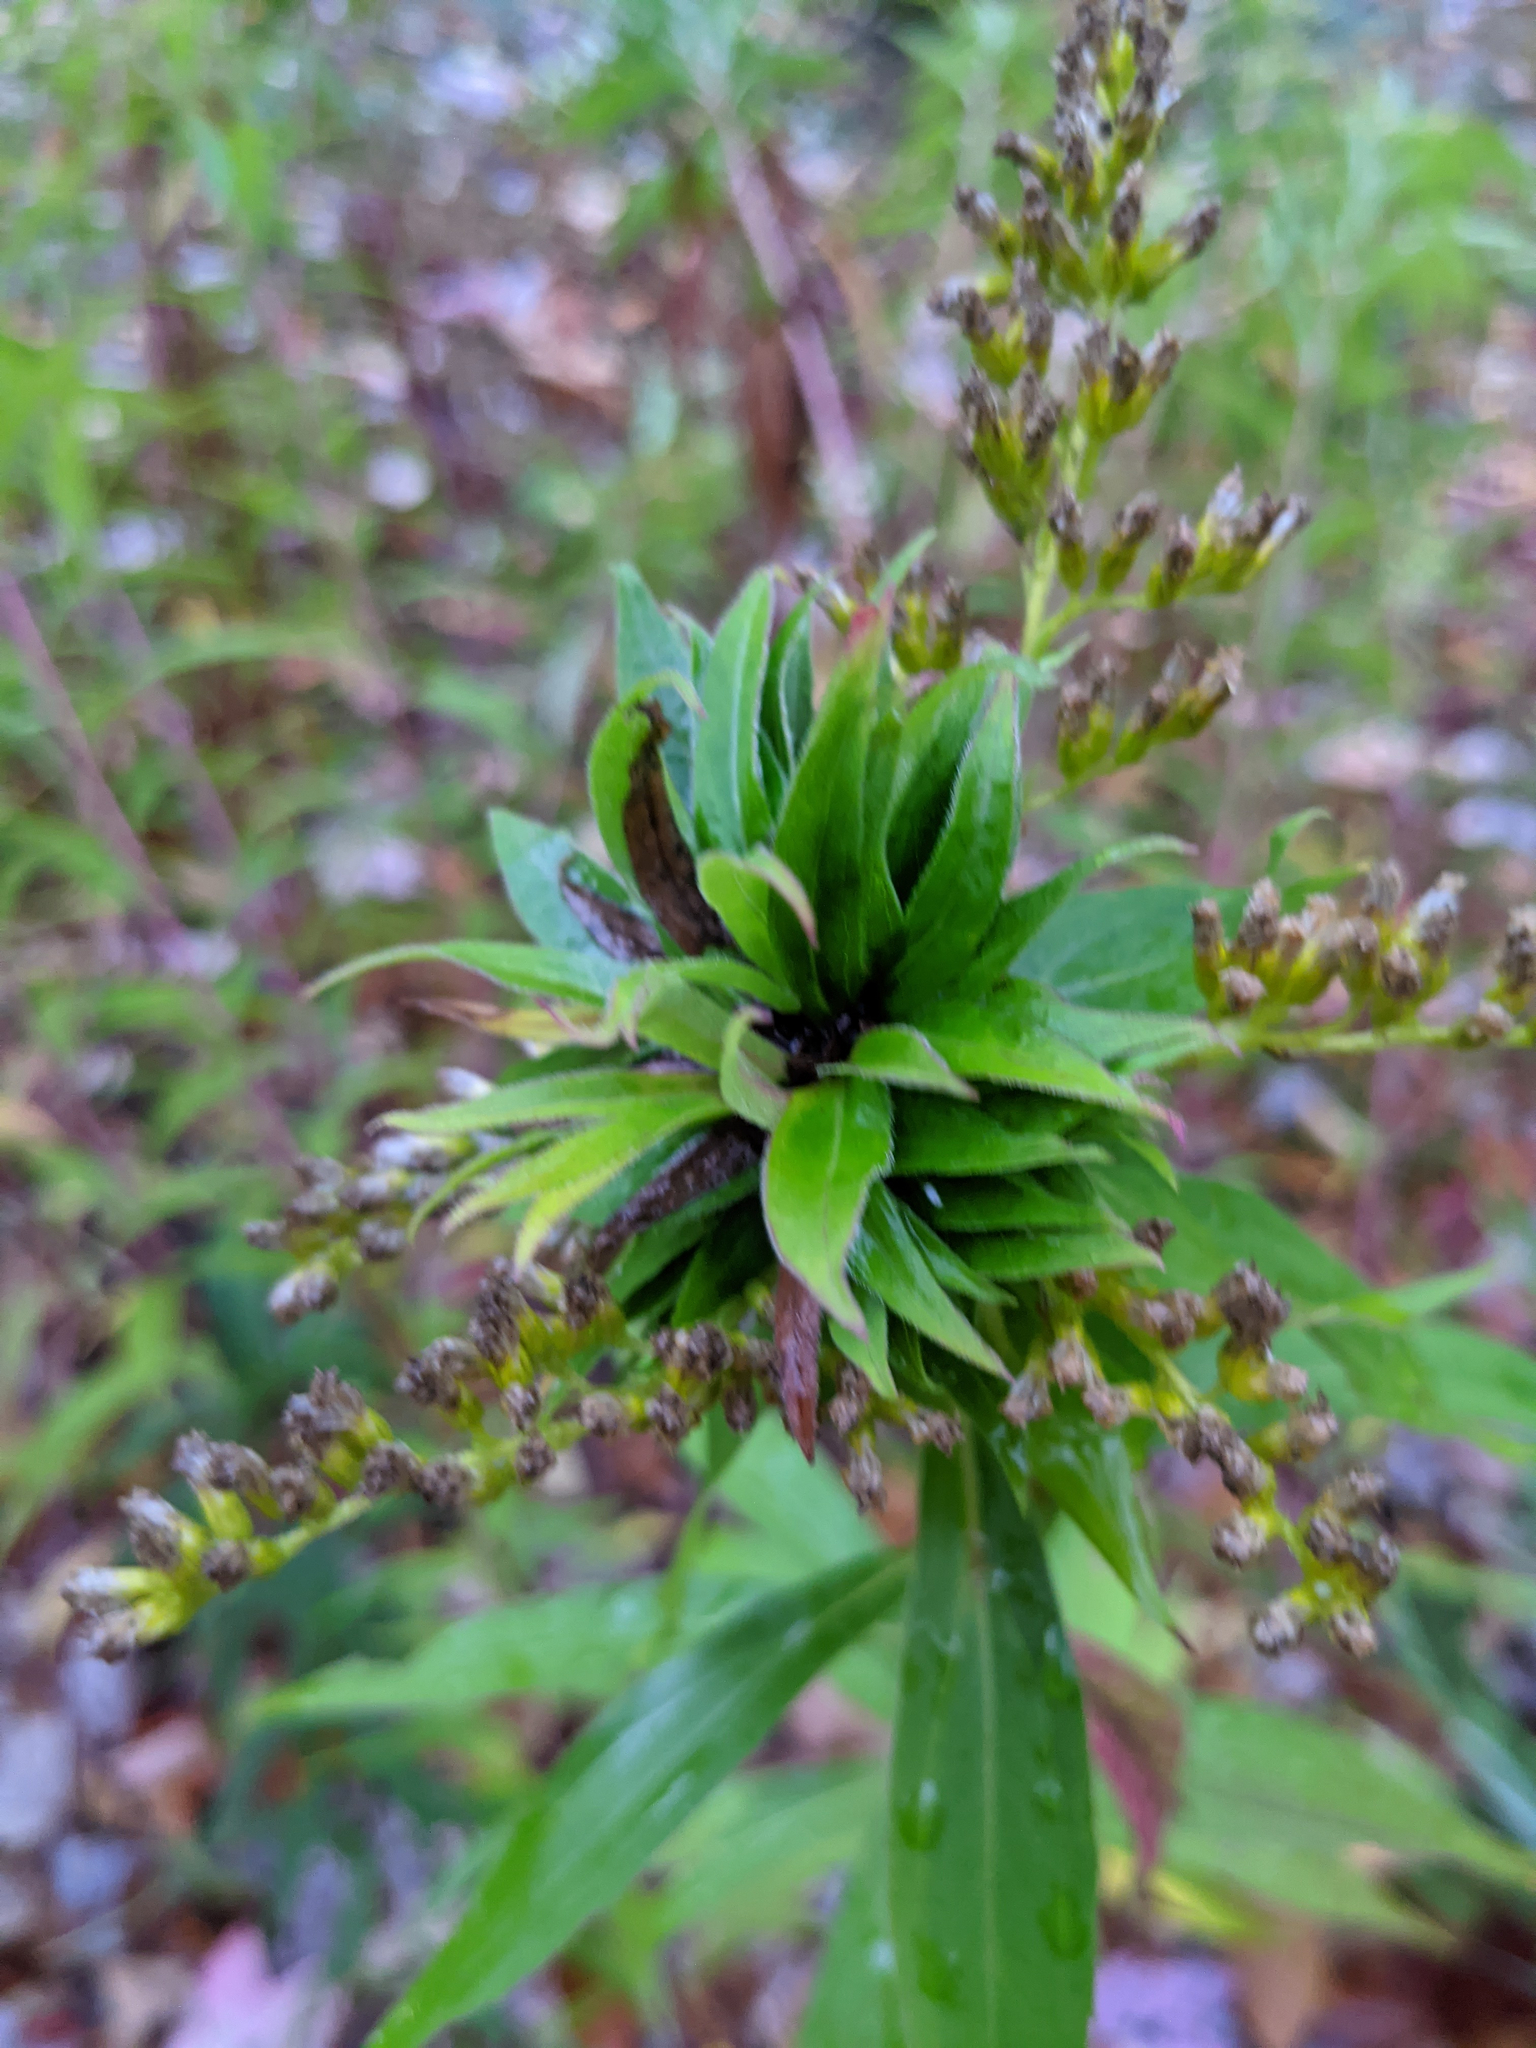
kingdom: Animalia
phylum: Arthropoda
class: Insecta
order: Diptera
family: Cecidomyiidae
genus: Rhopalomyia
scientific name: Rhopalomyia solidaginis
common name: Goldenrod bunch gall midge
